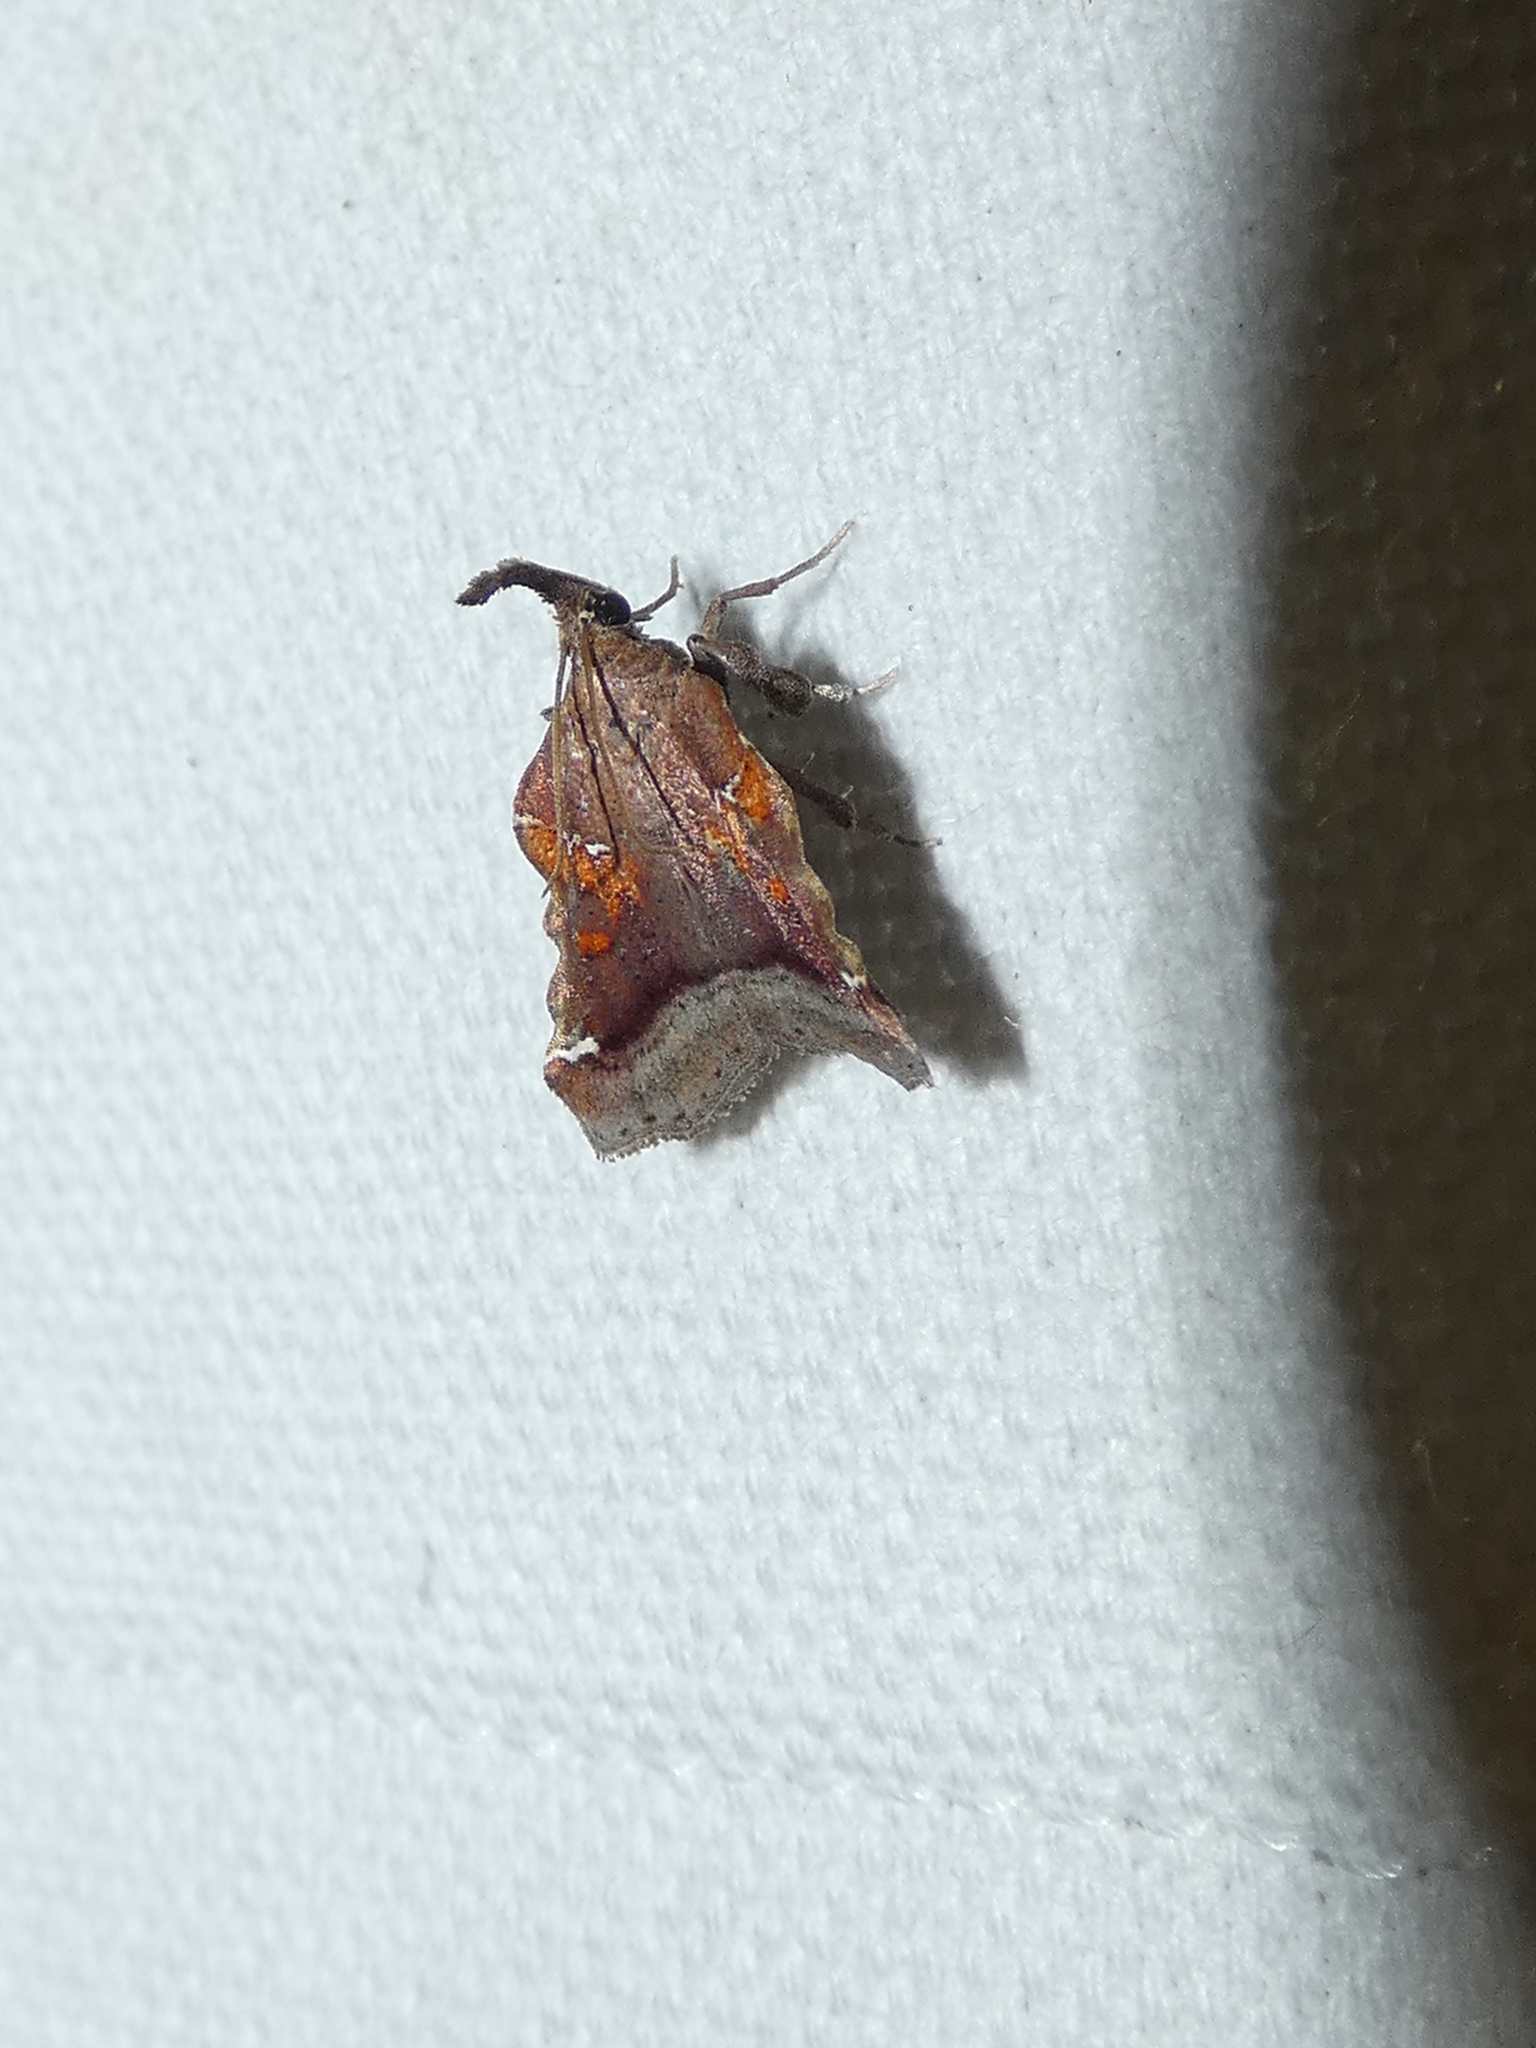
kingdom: Animalia
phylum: Arthropoda
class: Insecta
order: Lepidoptera
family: Pyralidae
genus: Clydonopteron
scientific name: Clydonopteron sacculana
